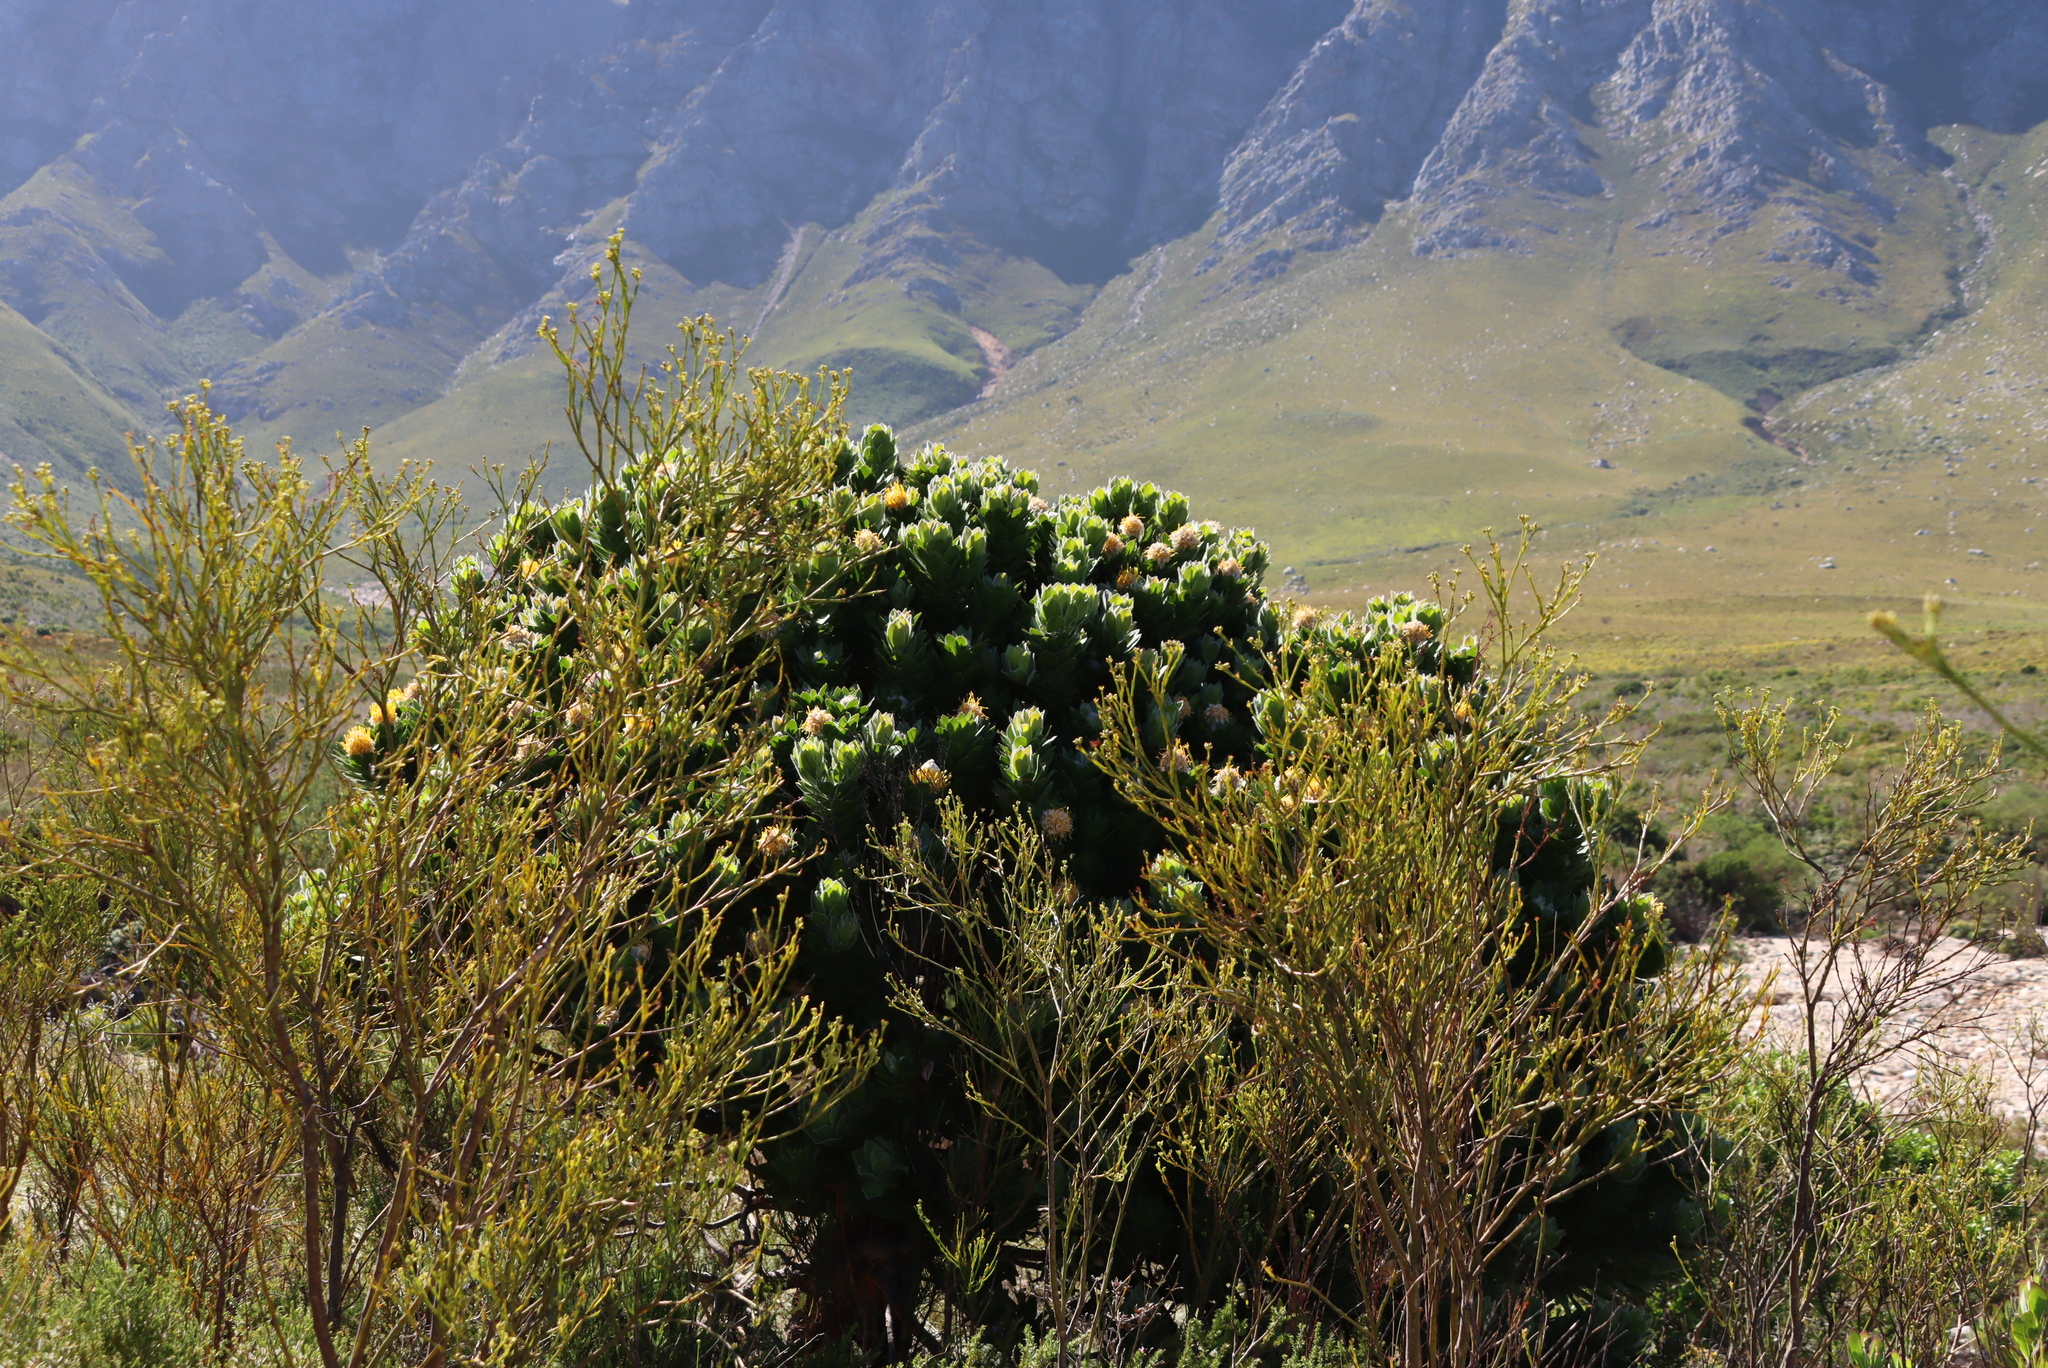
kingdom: Plantae
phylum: Tracheophyta
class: Magnoliopsida
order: Proteales
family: Proteaceae
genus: Leucospermum
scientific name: Leucospermum conocarpodendron
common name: Tree pincushion
